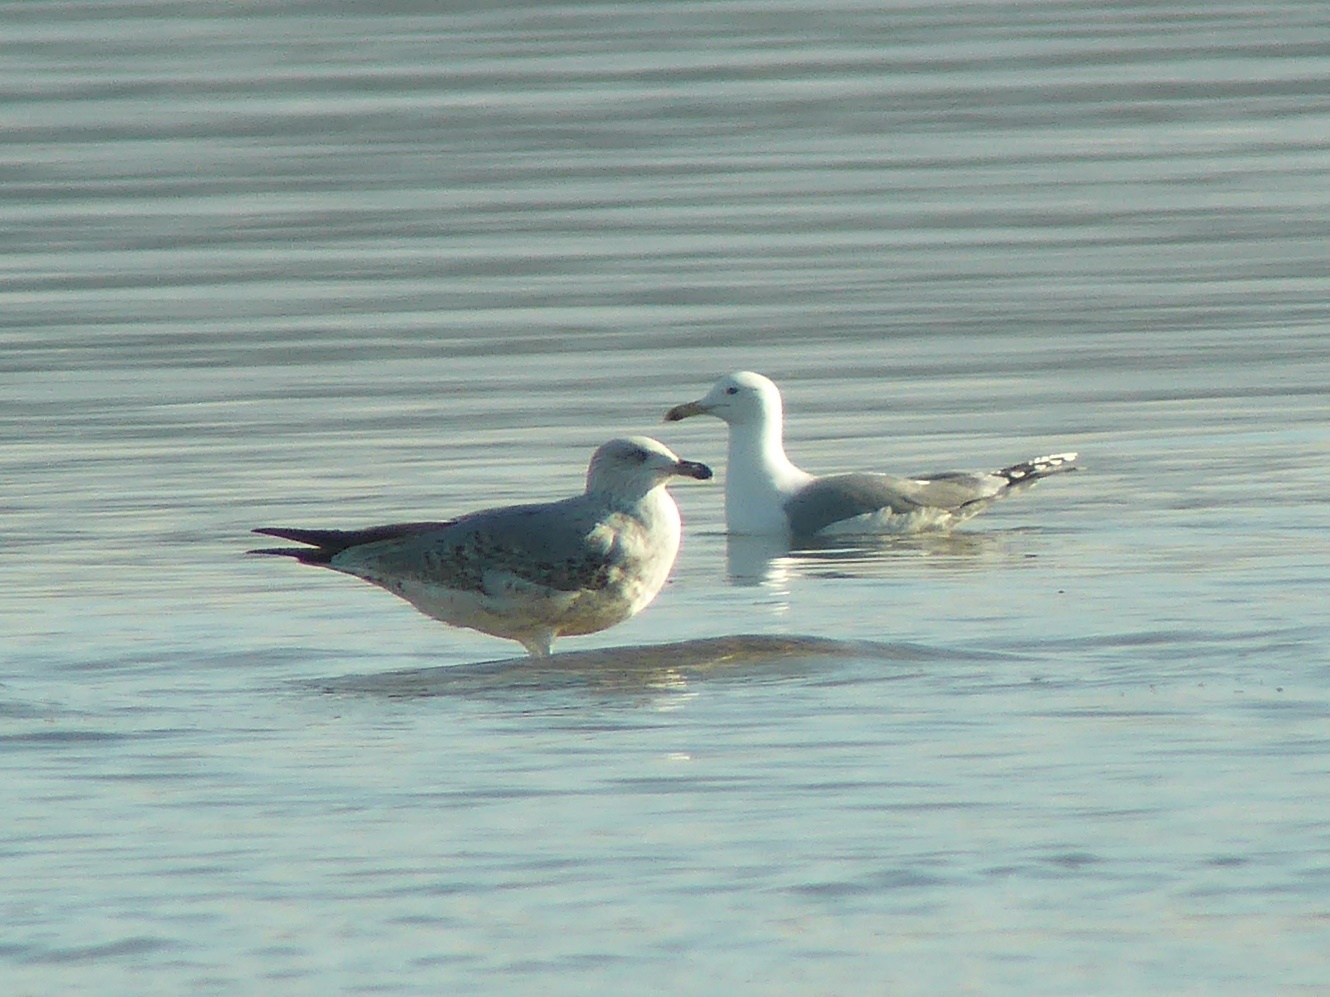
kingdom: Animalia
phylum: Chordata
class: Aves
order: Charadriiformes
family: Laridae
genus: Larus
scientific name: Larus cachinnans
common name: Caspian gull
